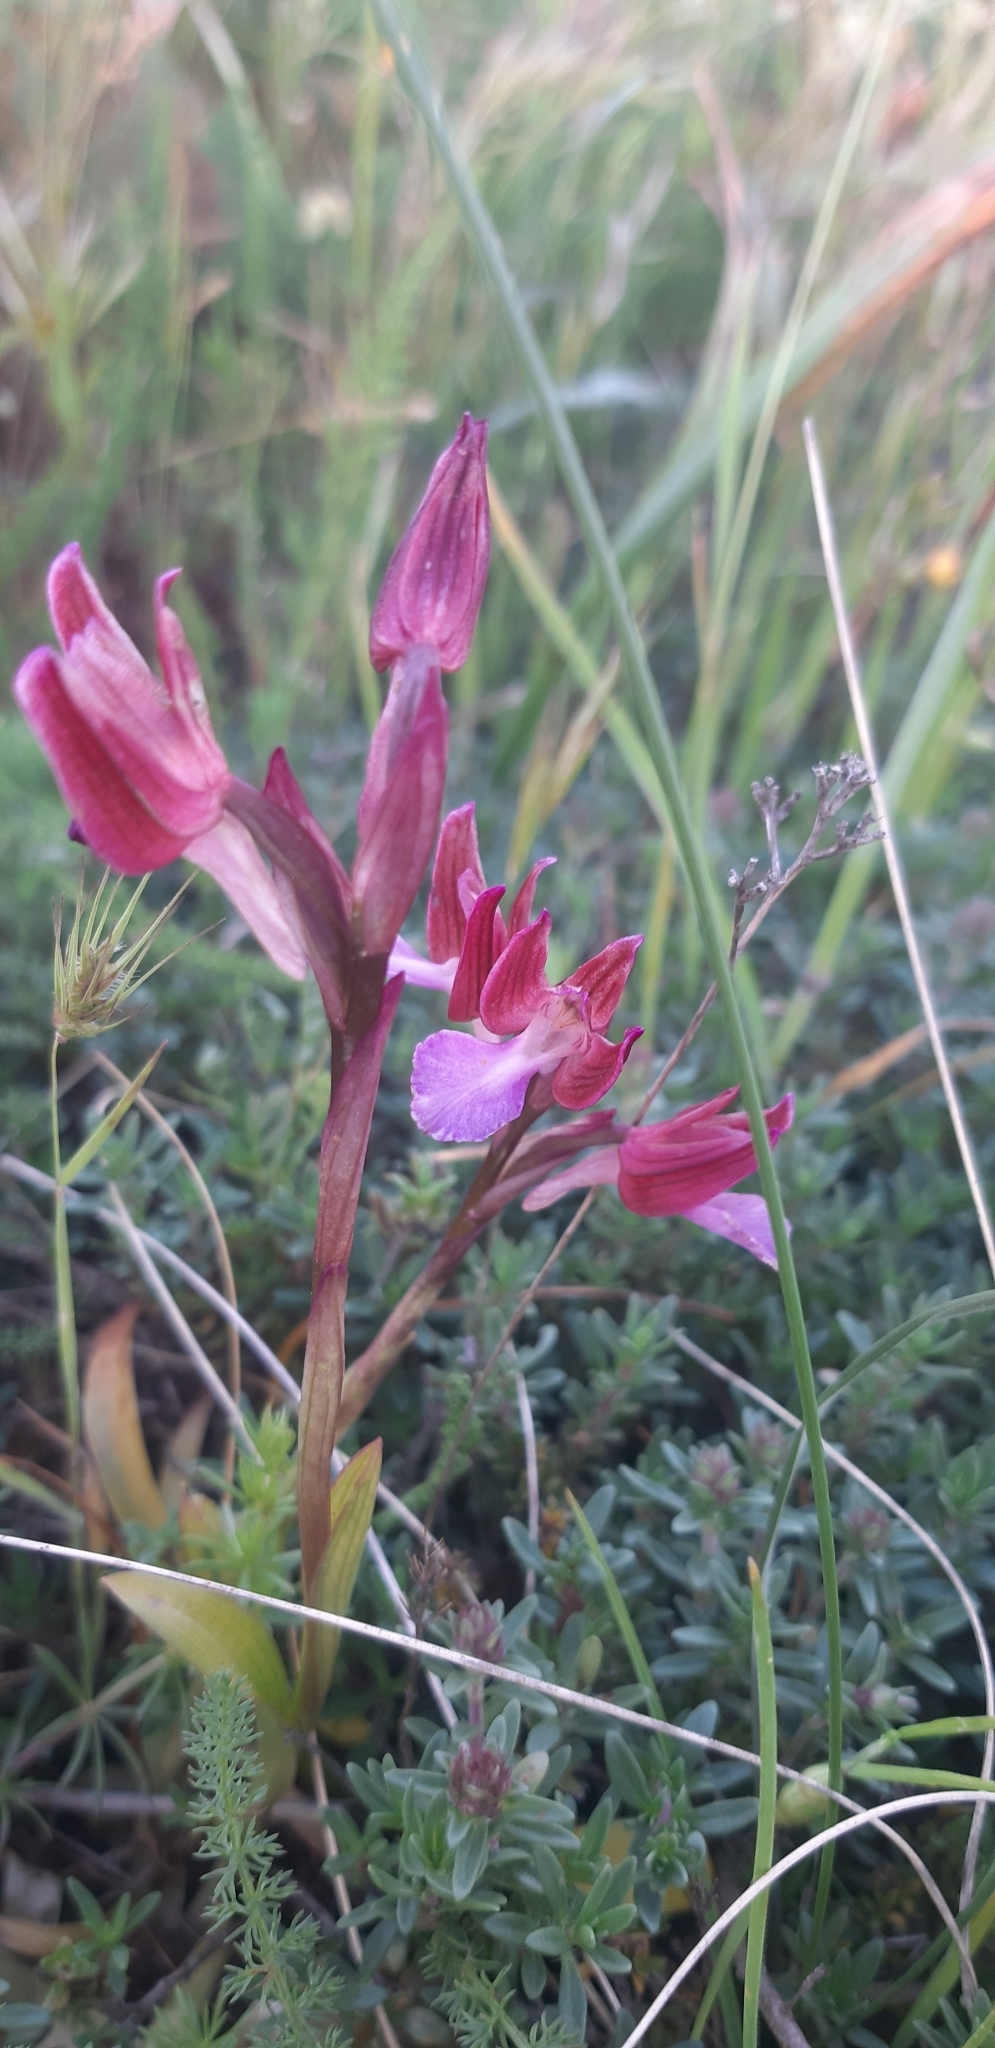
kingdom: Plantae
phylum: Tracheophyta
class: Liliopsida
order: Asparagales
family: Orchidaceae
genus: Anacamptis
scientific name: Anacamptis papilionacea
